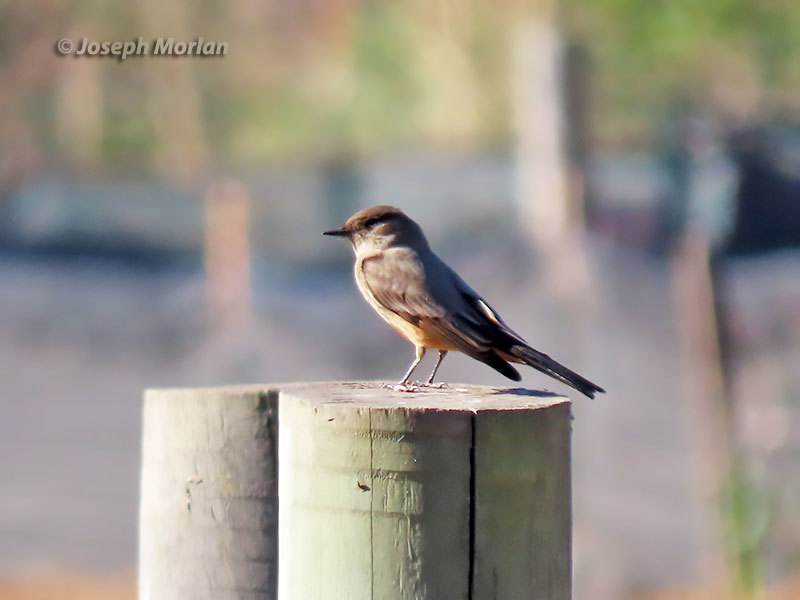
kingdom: Animalia
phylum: Chordata
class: Aves
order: Passeriformes
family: Tyrannidae
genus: Sayornis
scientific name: Sayornis saya
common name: Say's phoebe
